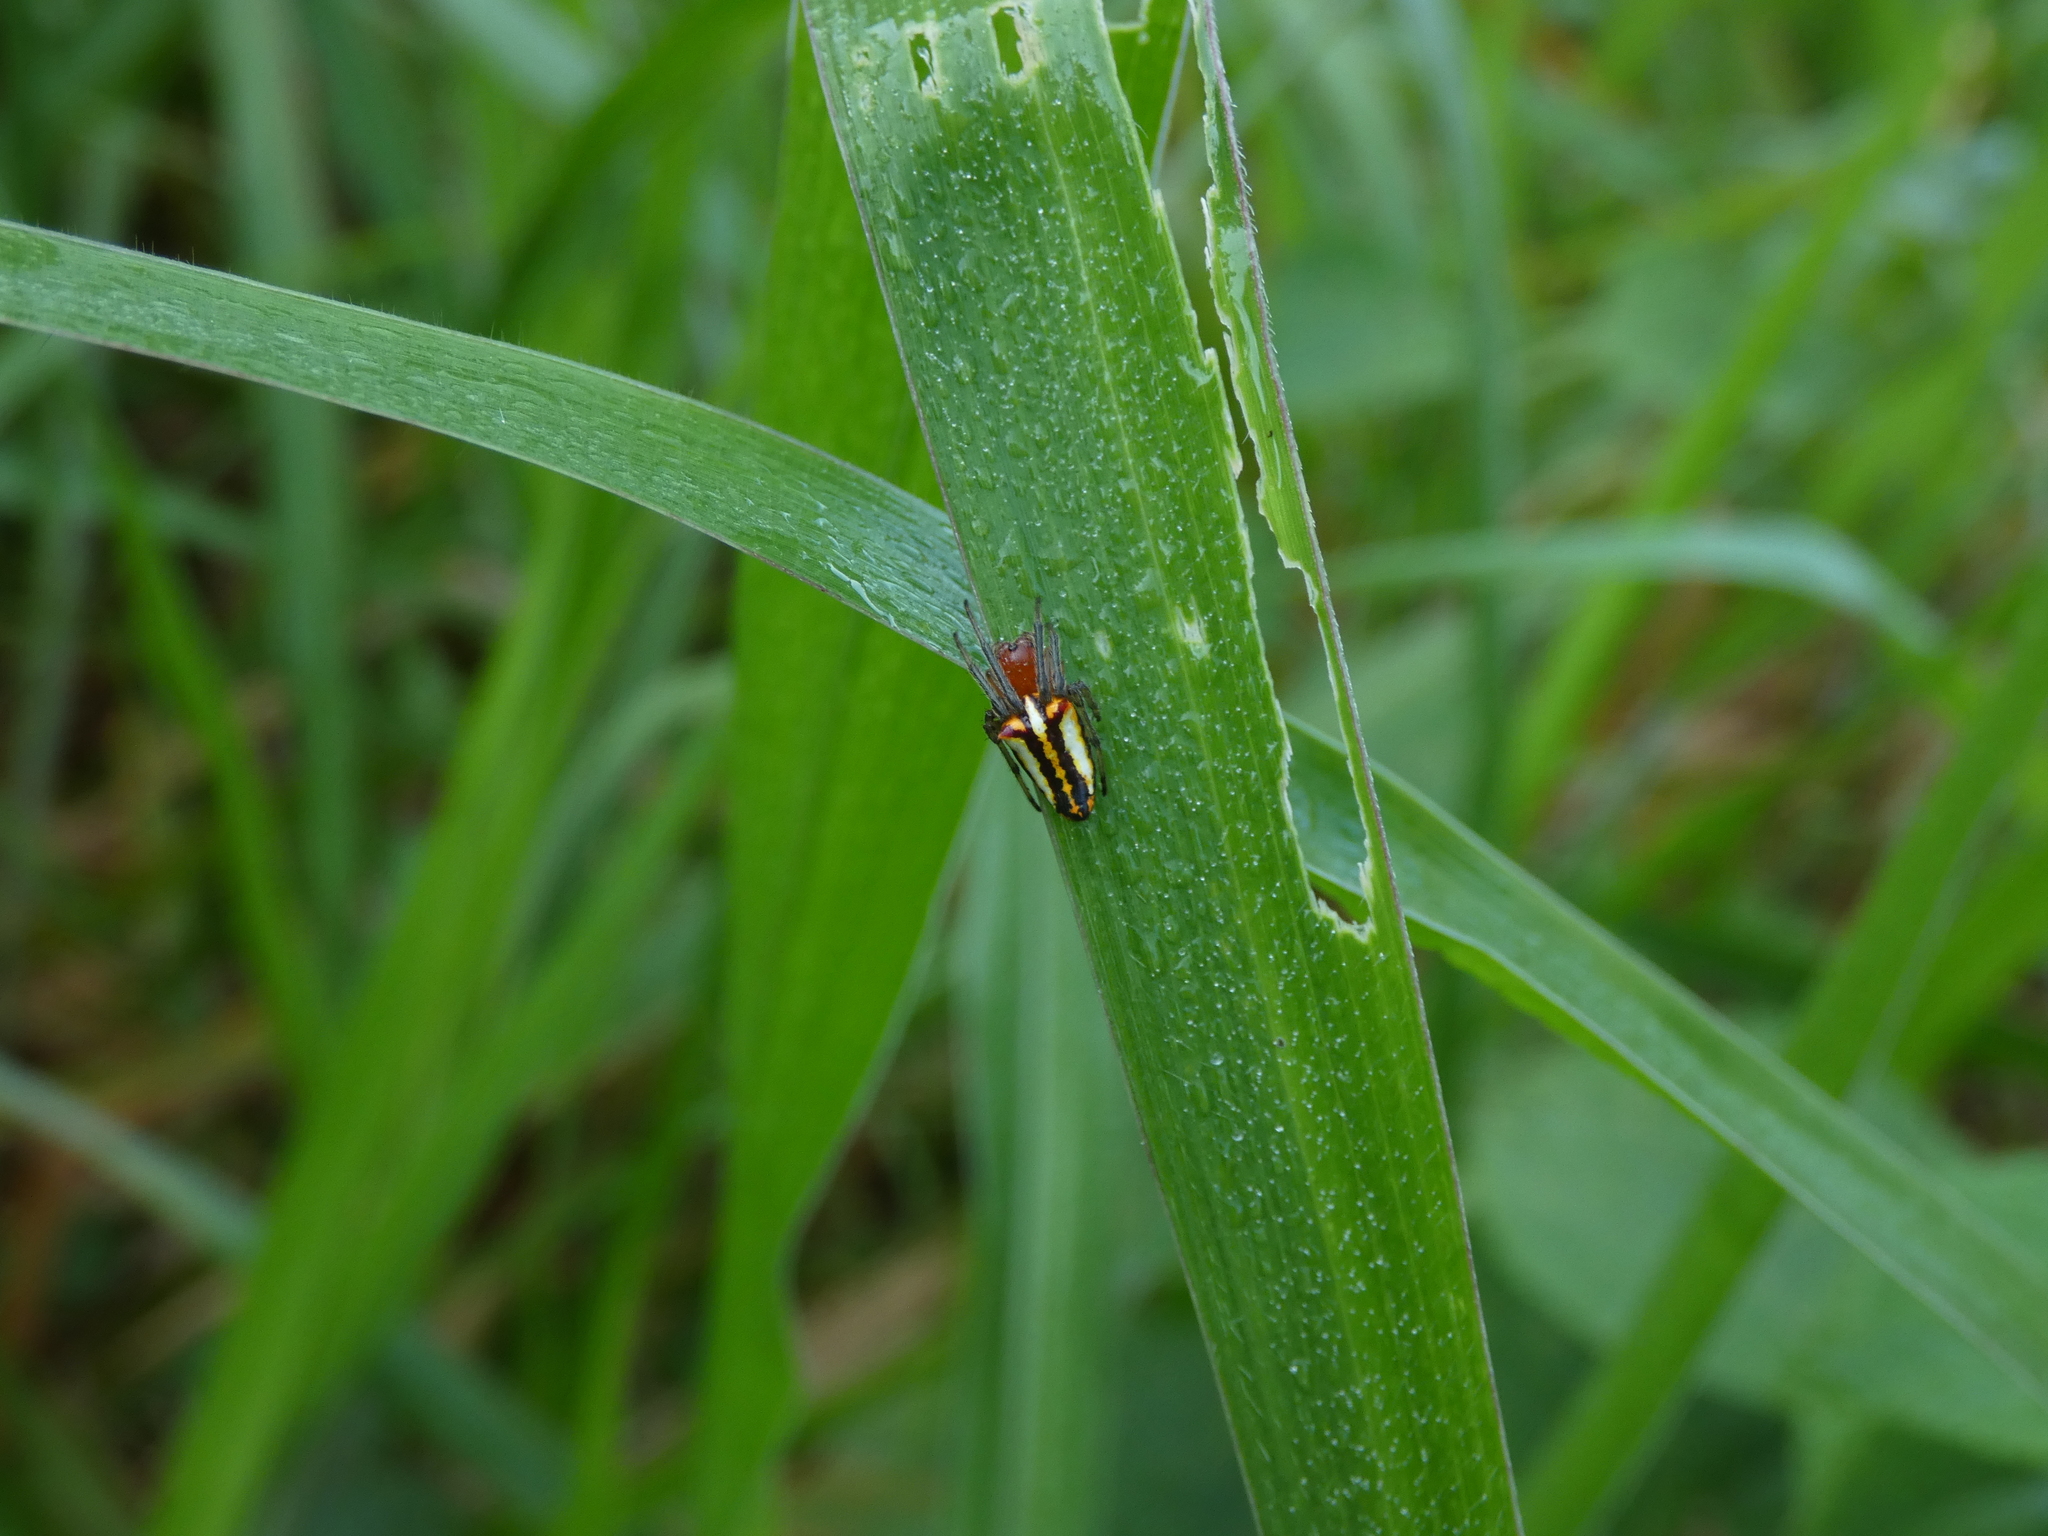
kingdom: Animalia
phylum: Arthropoda
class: Arachnida
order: Araneae
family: Araneidae
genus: Alpaida
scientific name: Alpaida bicornuta
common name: Orb weavers
